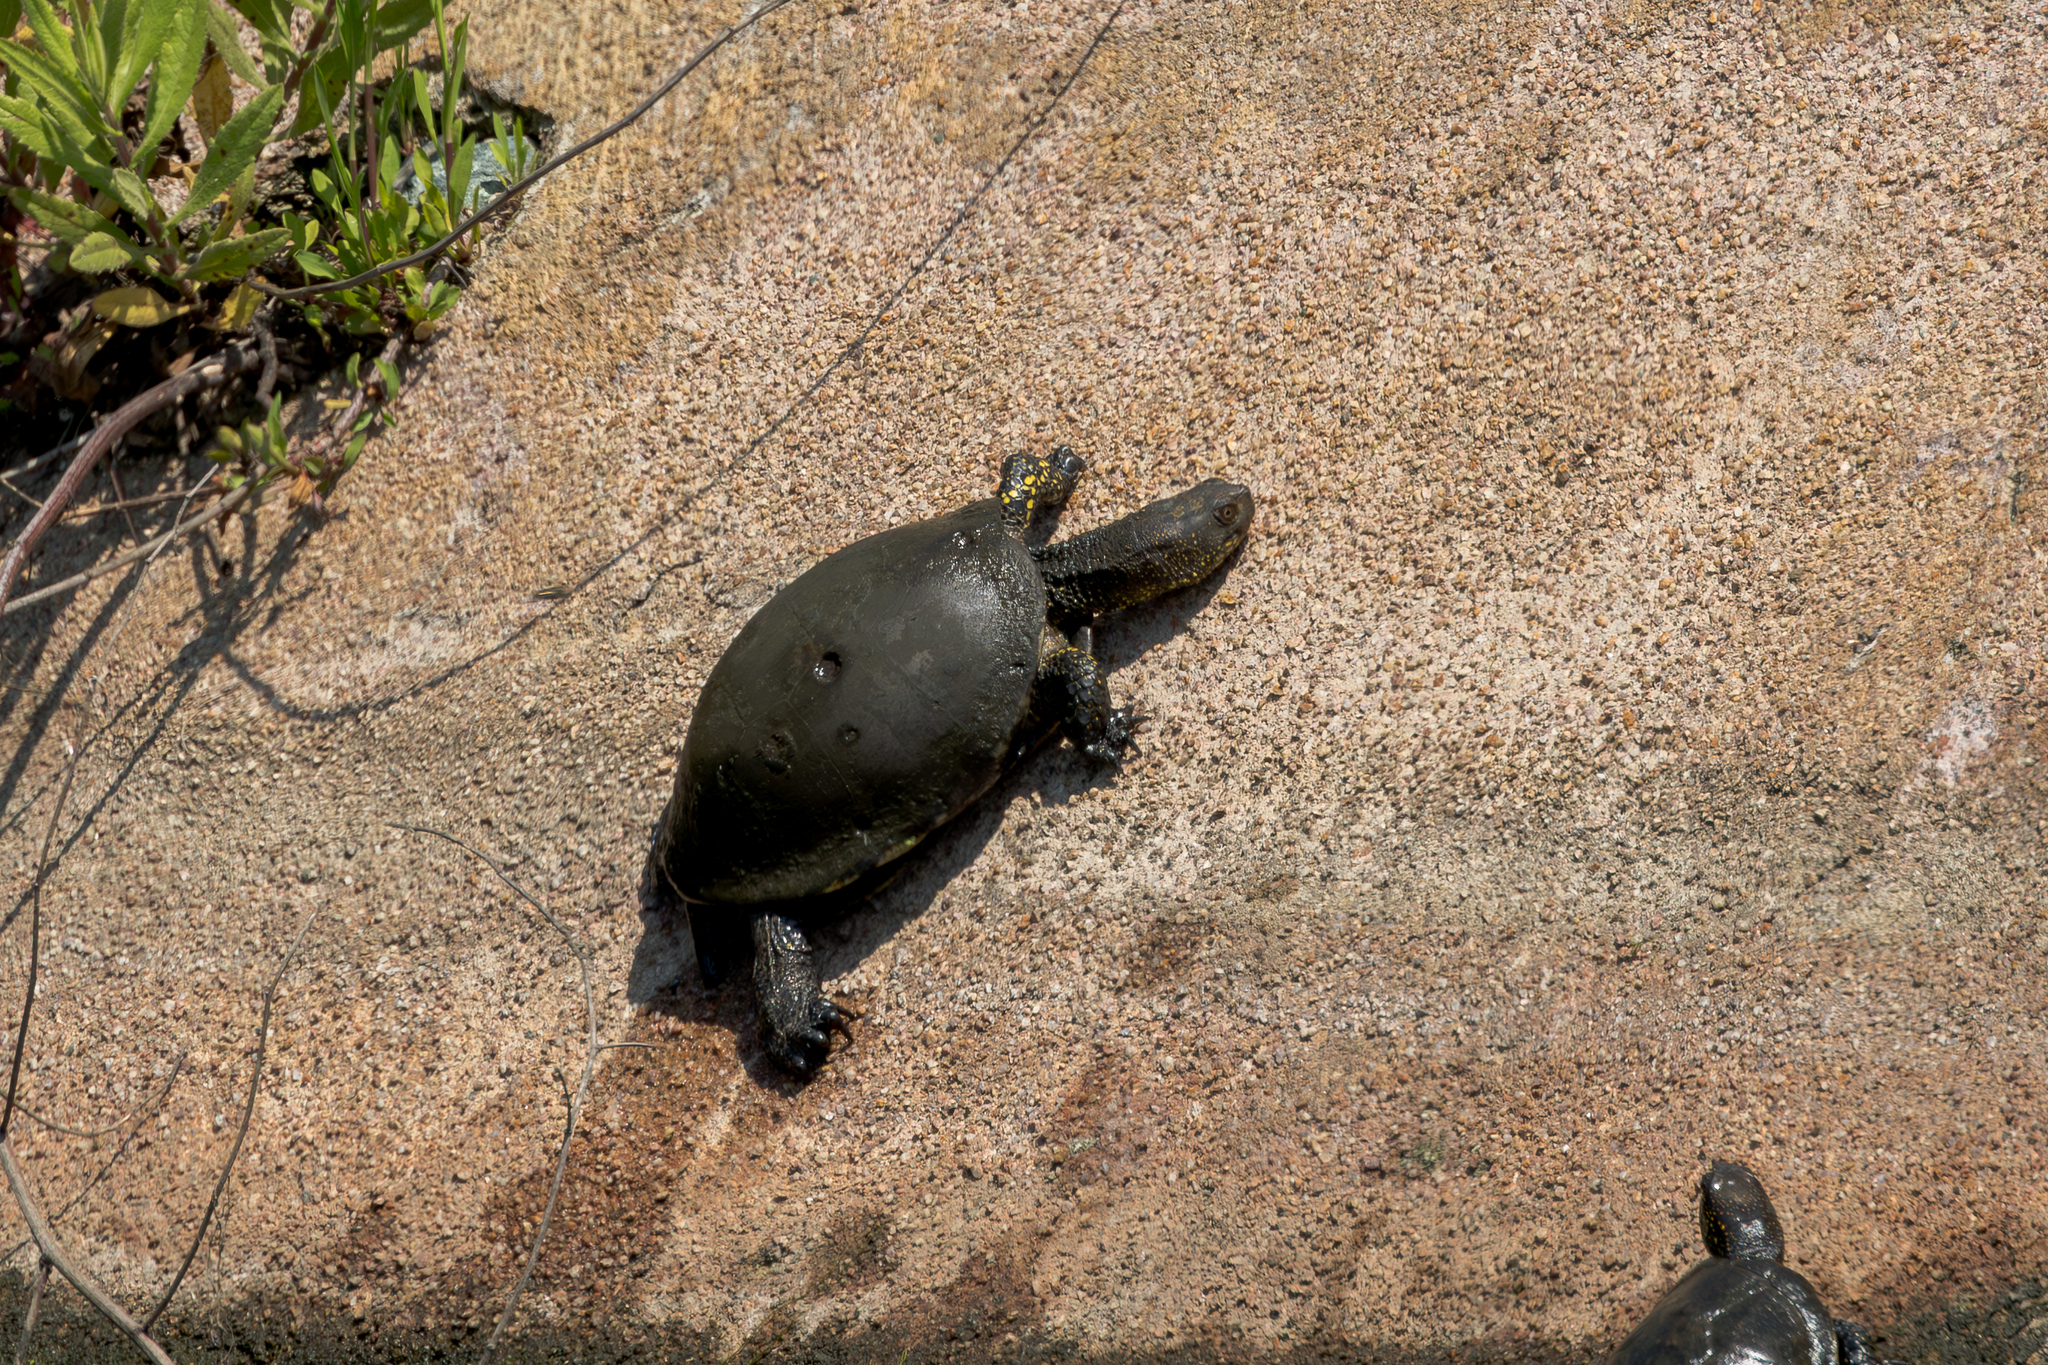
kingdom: Animalia
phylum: Chordata
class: Testudines
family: Emydidae
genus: Emys
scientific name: Emys orbicularis
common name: European pond turtle
